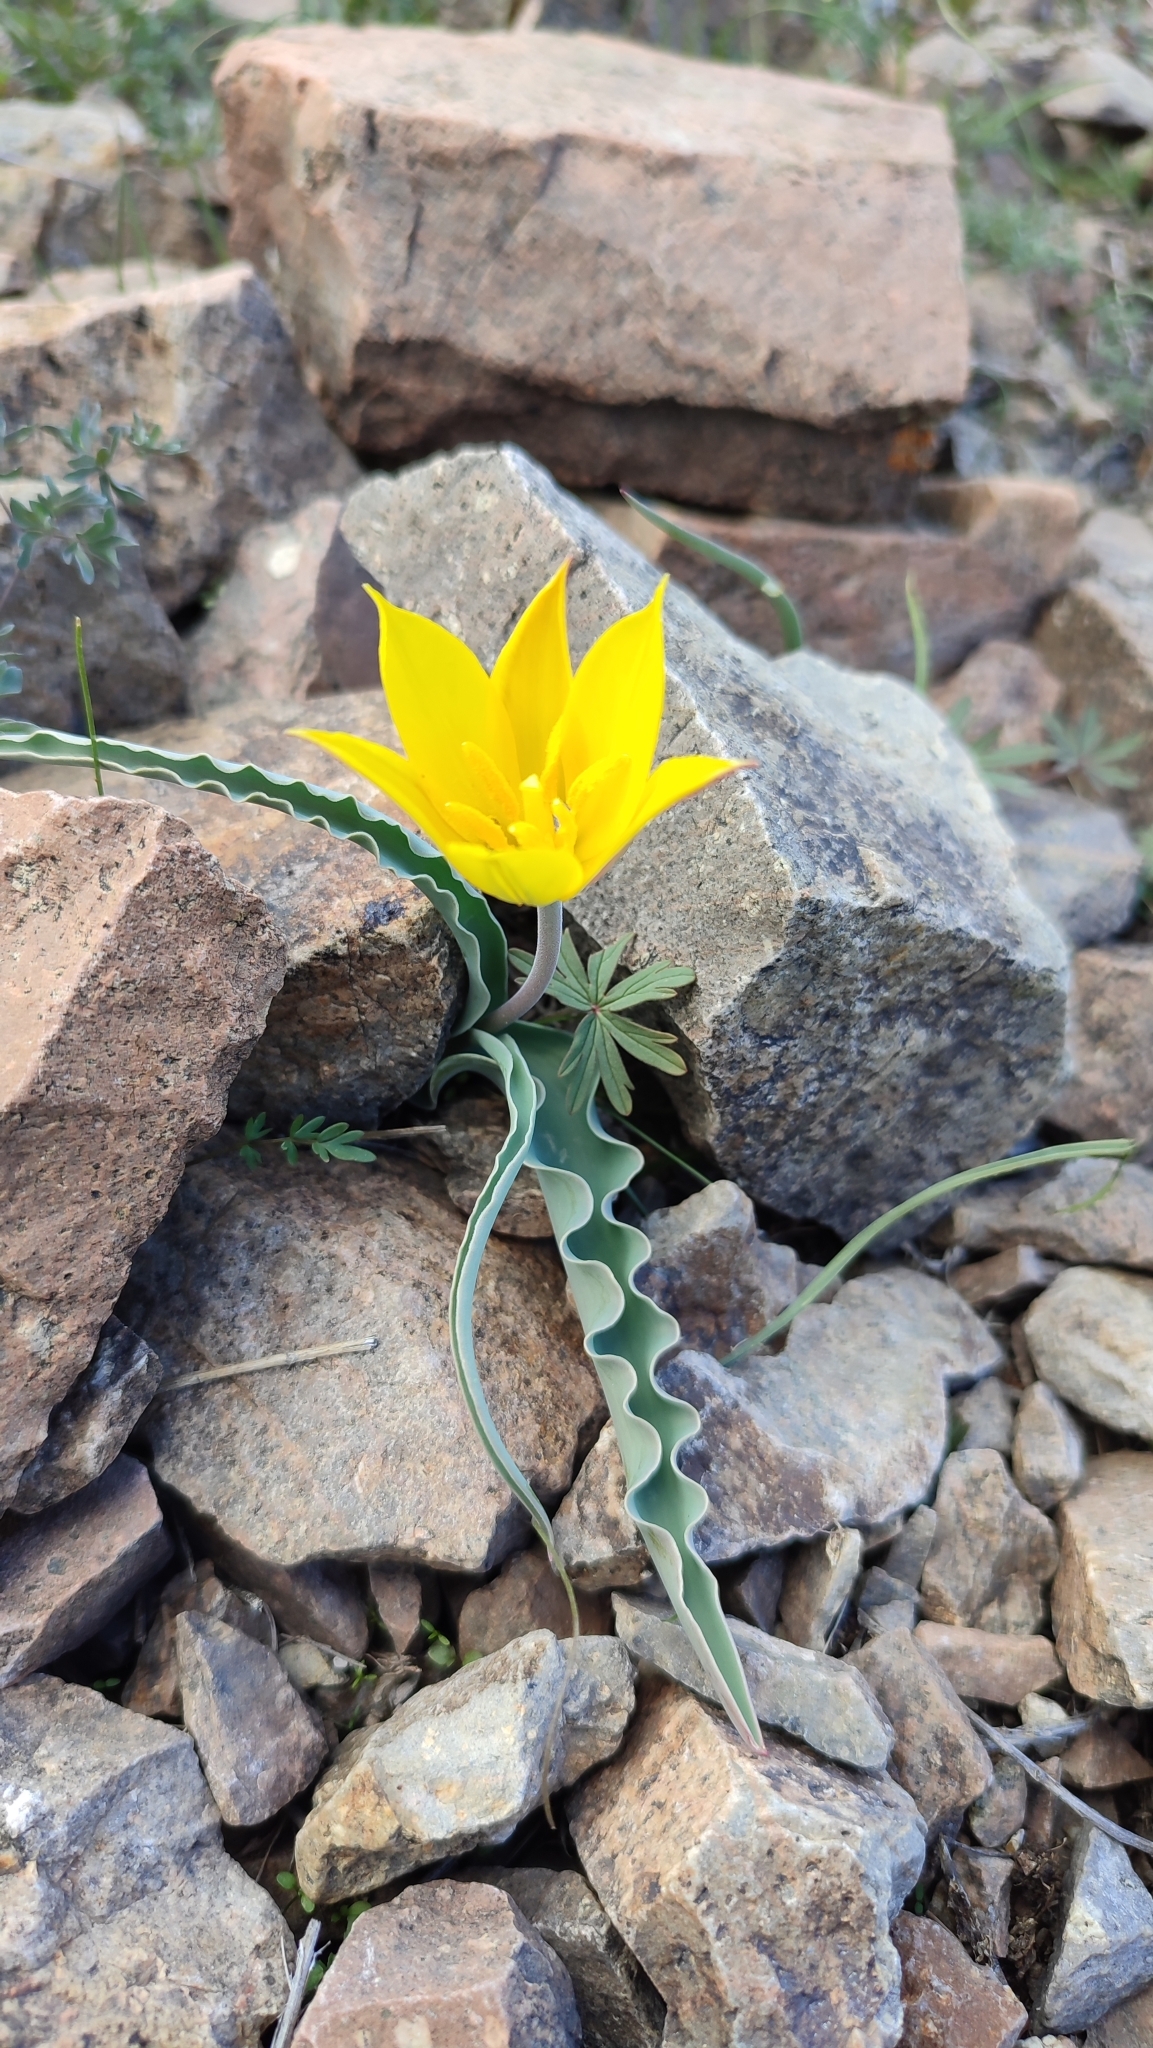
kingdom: Plantae
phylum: Tracheophyta
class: Liliopsida
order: Liliales
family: Liliaceae
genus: Tulipa
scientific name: Tulipa altaica
